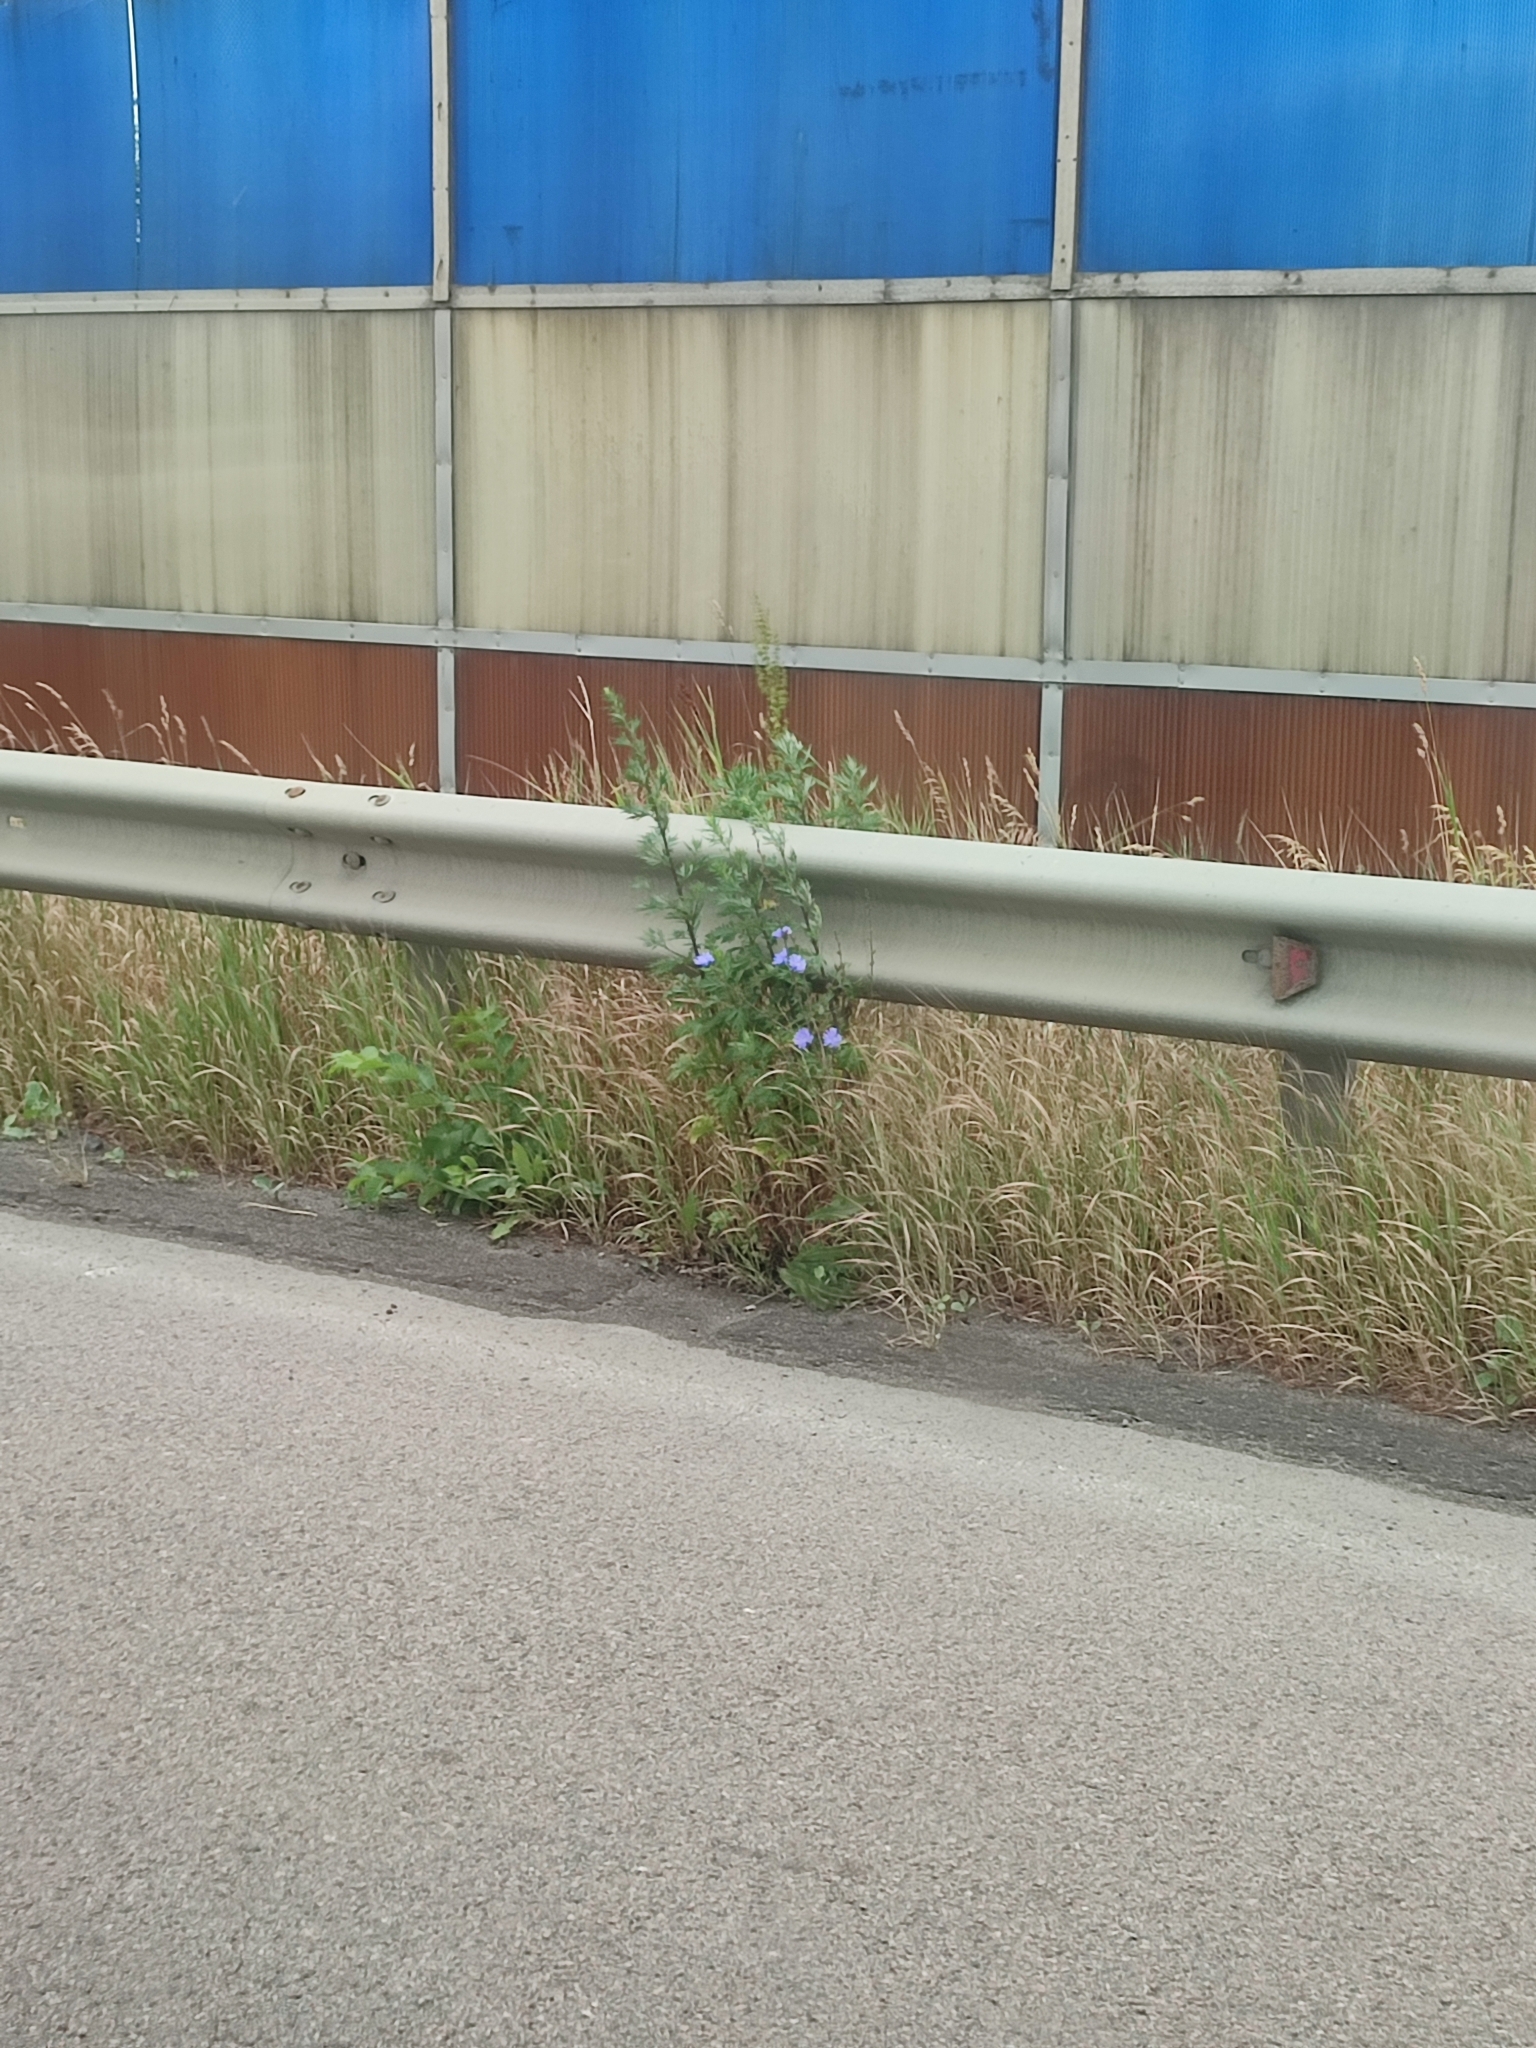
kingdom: Plantae
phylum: Tracheophyta
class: Magnoliopsida
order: Asterales
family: Asteraceae
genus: Cichorium
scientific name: Cichorium intybus
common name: Chicory
